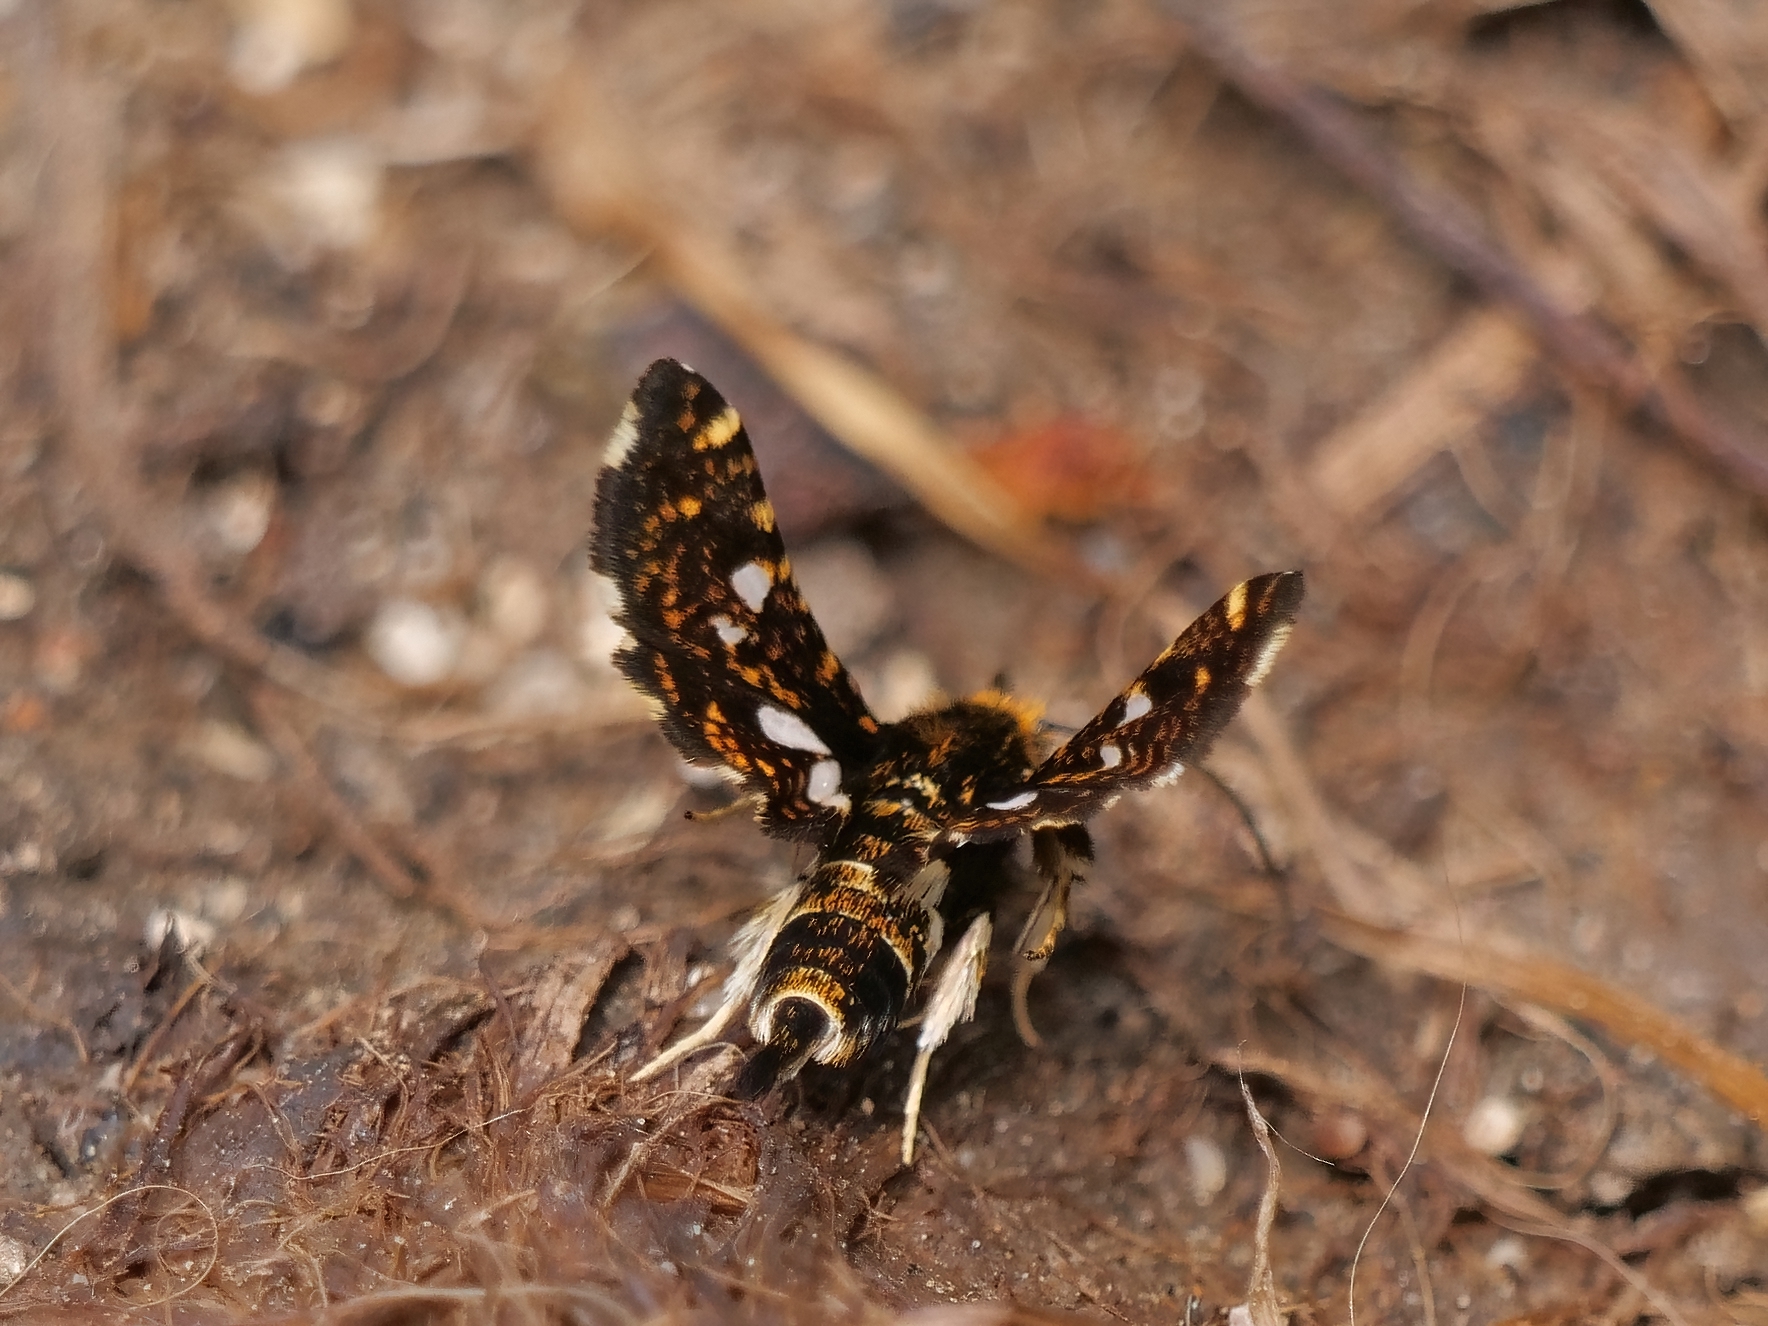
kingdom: Animalia
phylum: Arthropoda
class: Insecta
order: Lepidoptera
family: Thyrididae
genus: Thyris
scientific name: Thyris fenestrella
